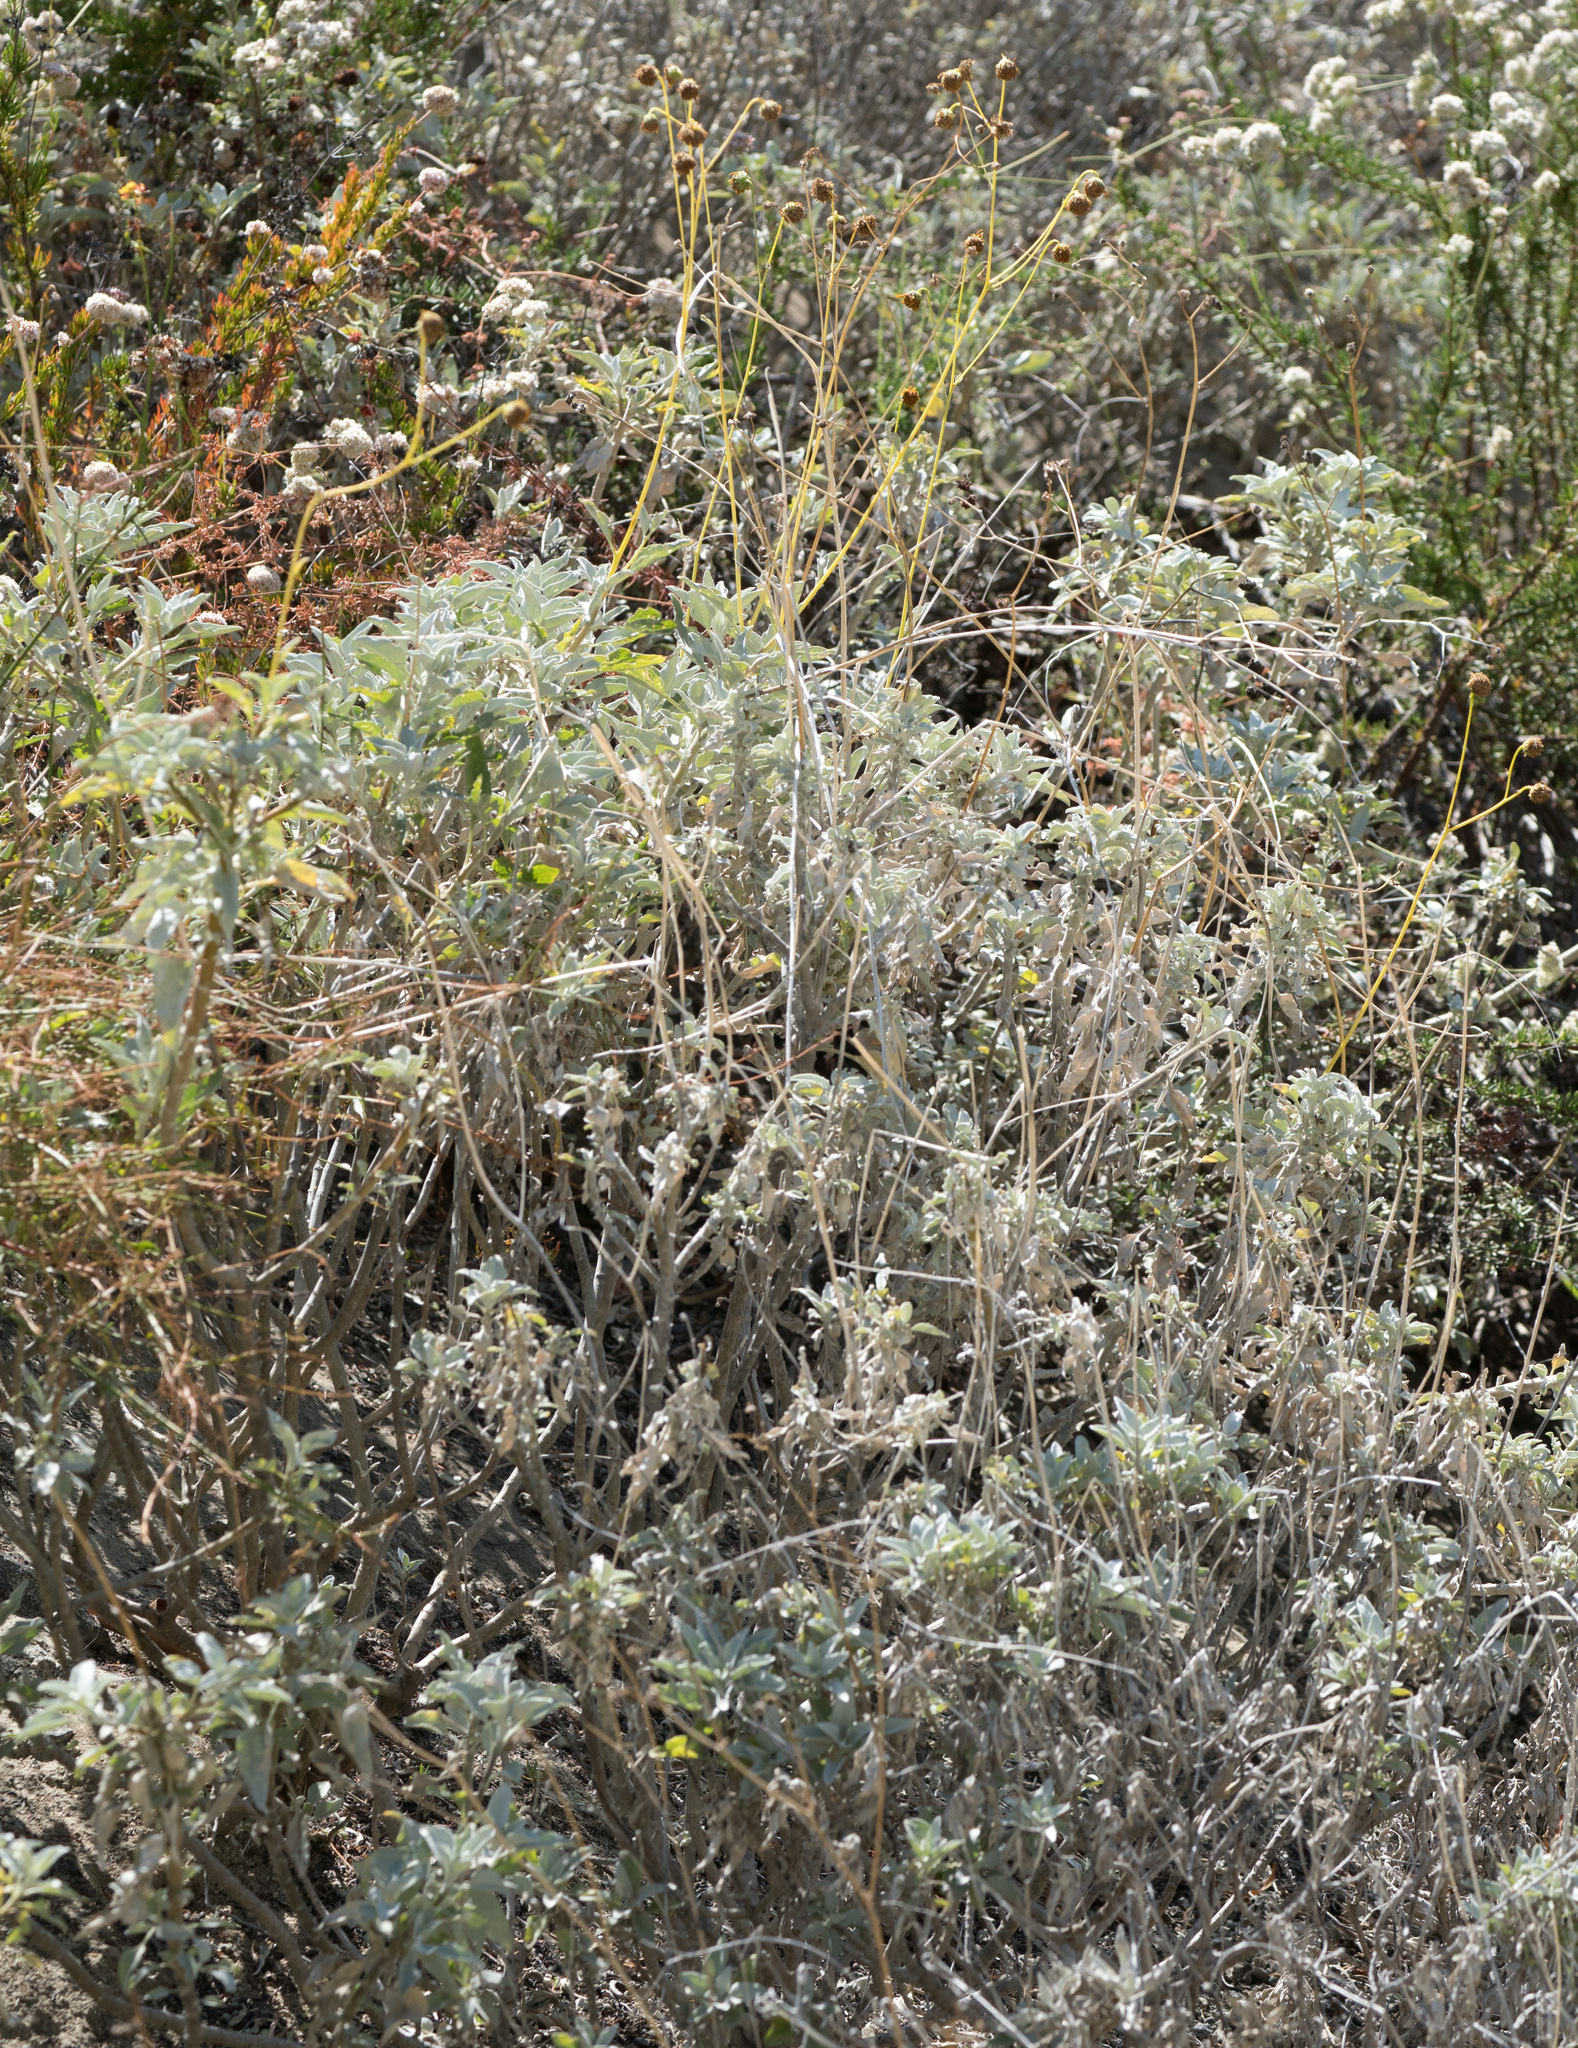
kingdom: Plantae
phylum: Tracheophyta
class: Magnoliopsida
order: Asterales
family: Asteraceae
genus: Encelia
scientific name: Encelia farinosa
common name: Brittlebush
